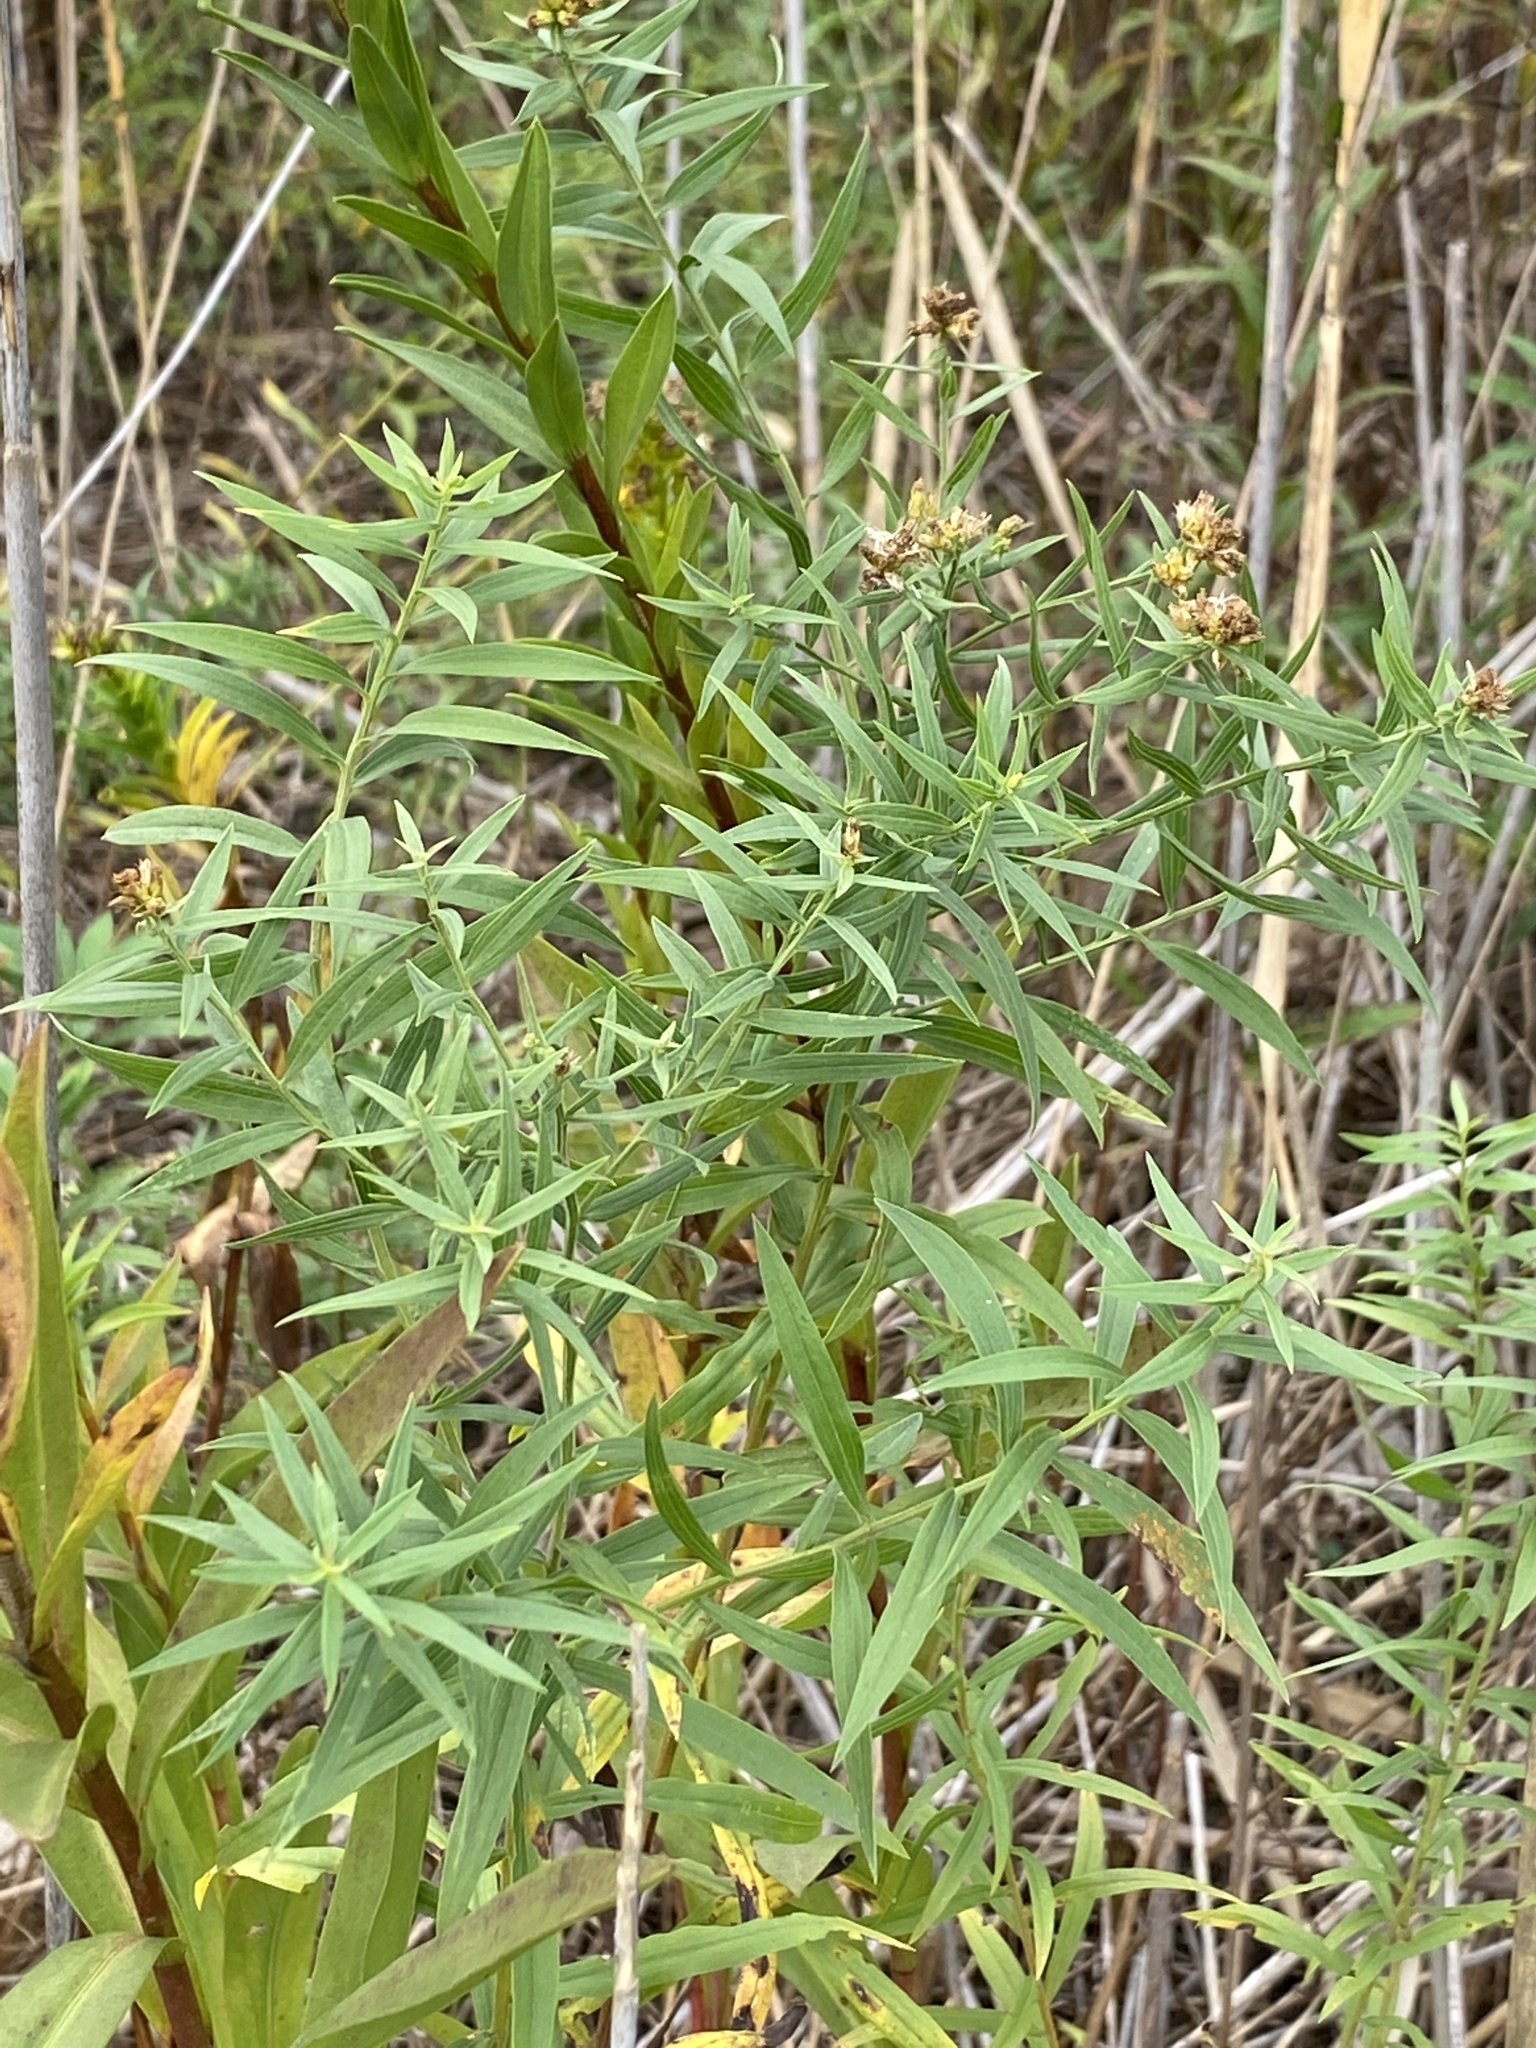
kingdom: Plantae
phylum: Tracheophyta
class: Magnoliopsida
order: Asterales
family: Asteraceae
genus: Euthamia
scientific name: Euthamia graminifolia
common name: Common goldentop
